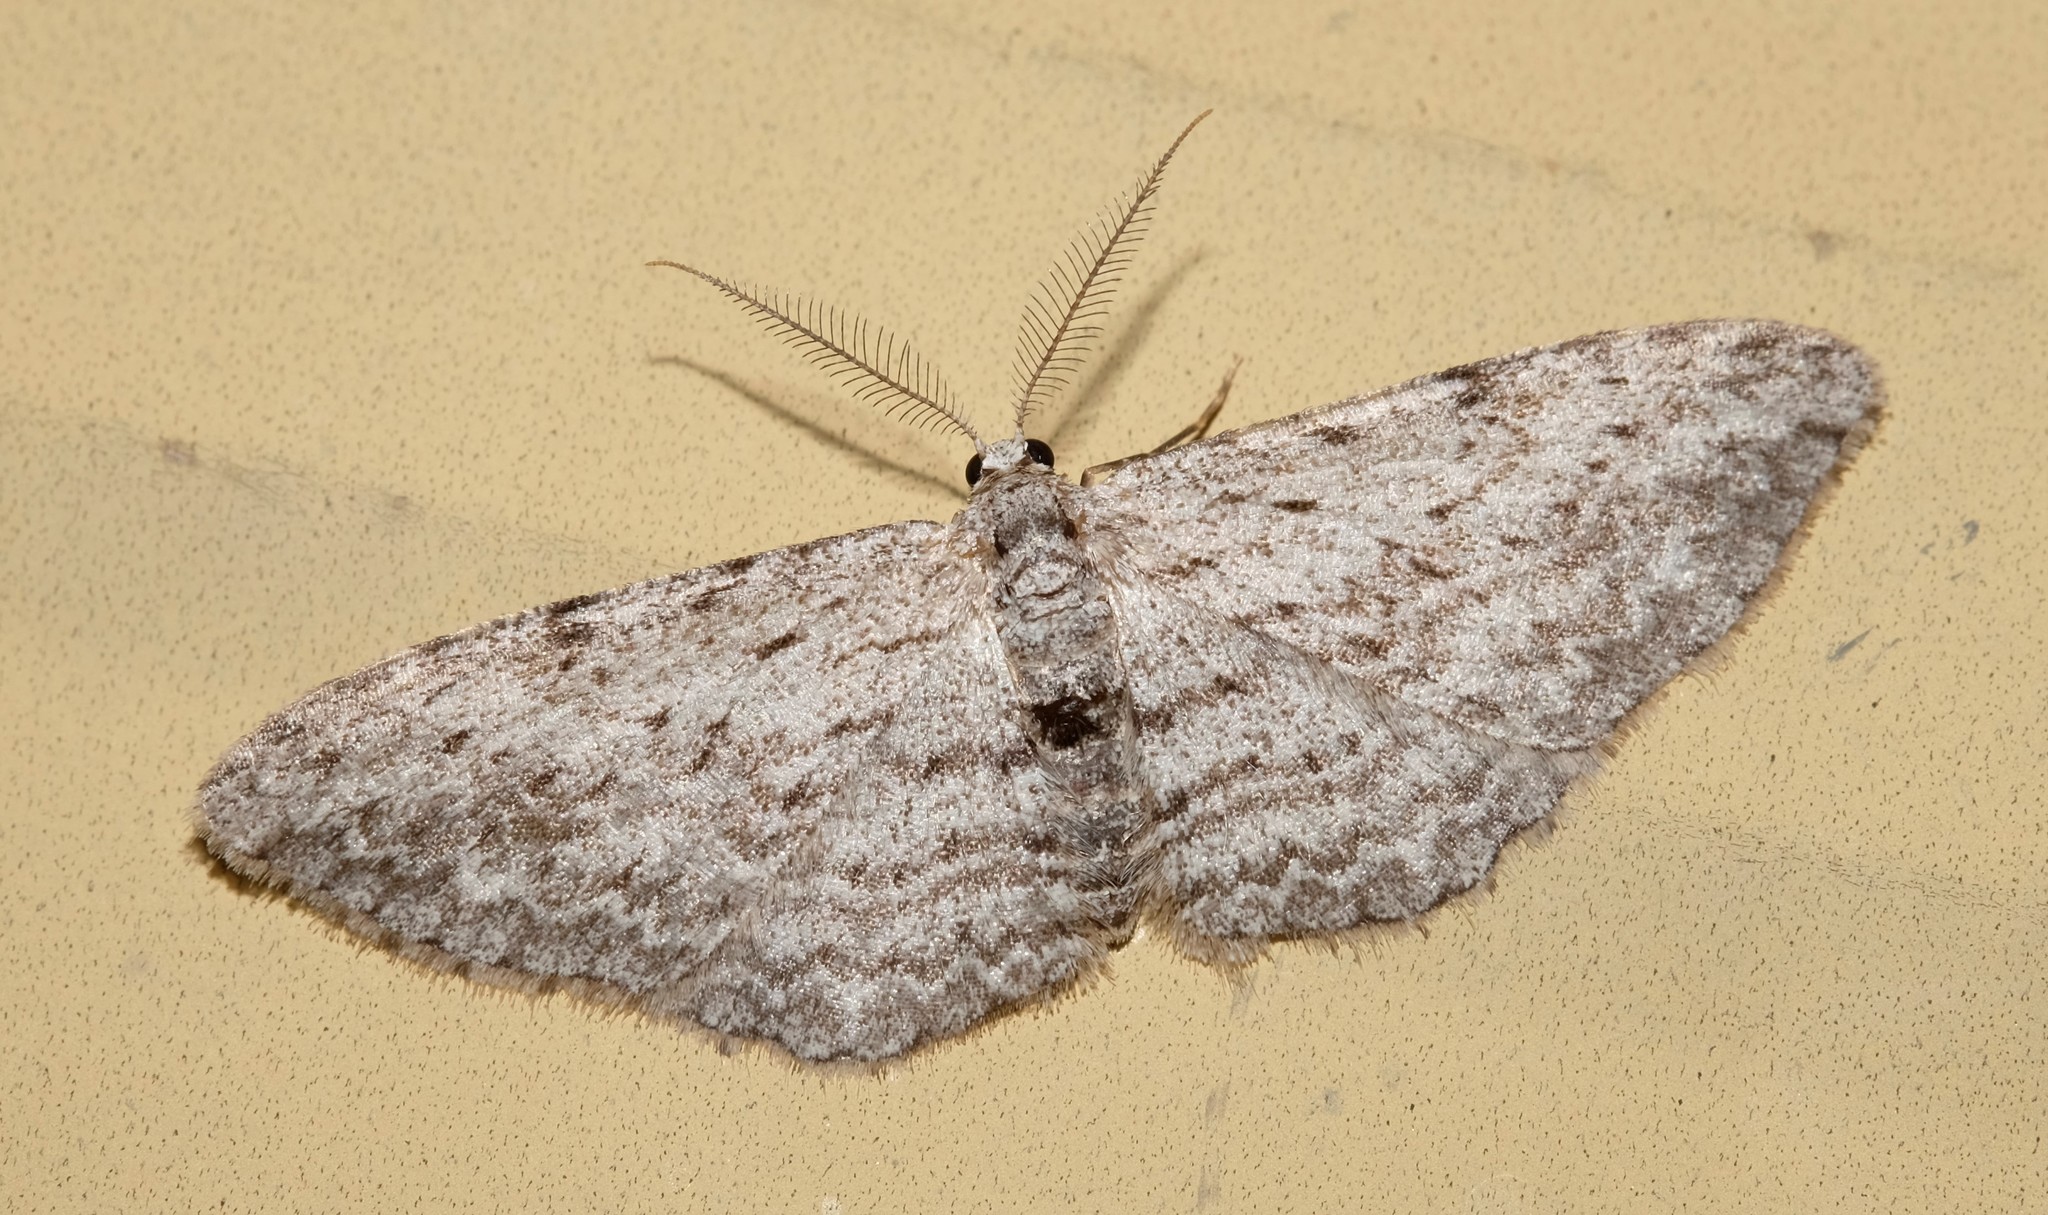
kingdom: Animalia
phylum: Arthropoda
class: Insecta
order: Lepidoptera
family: Geometridae
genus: Phelotis
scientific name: Phelotis cognata
